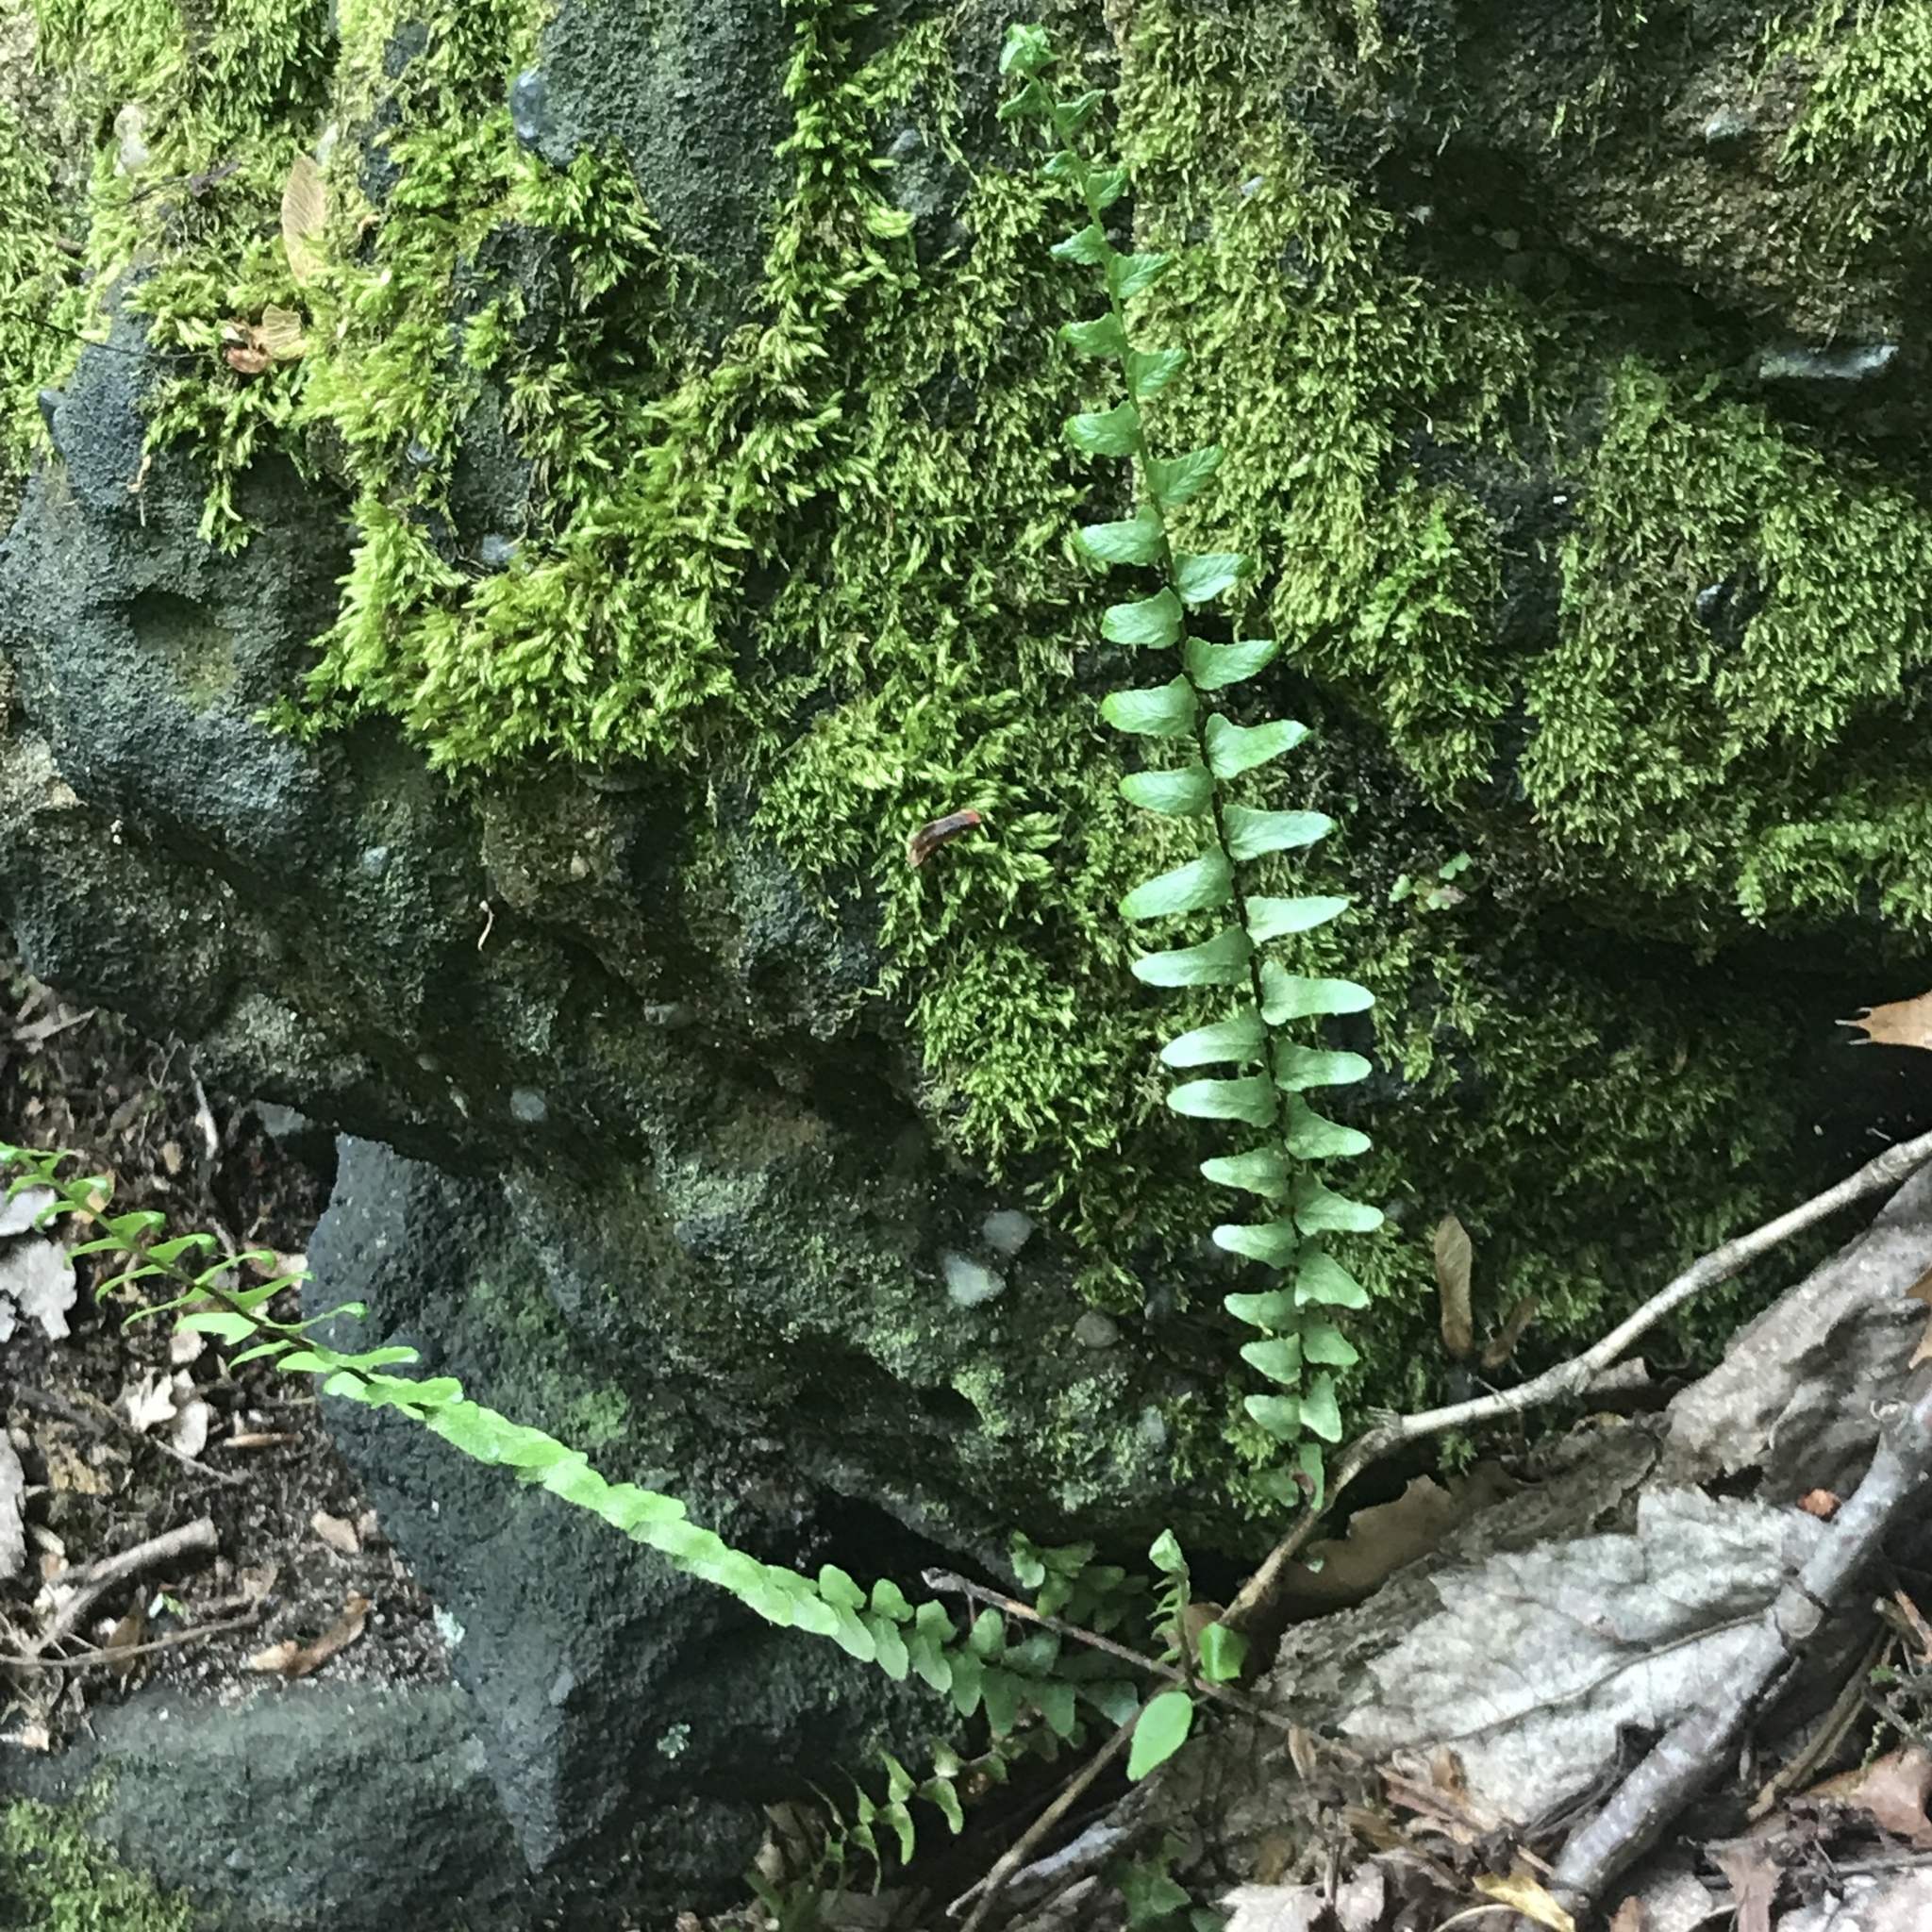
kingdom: Plantae
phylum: Tracheophyta
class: Polypodiopsida
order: Polypodiales
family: Aspleniaceae
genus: Asplenium
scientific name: Asplenium platyneuron
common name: Ebony spleenwort
